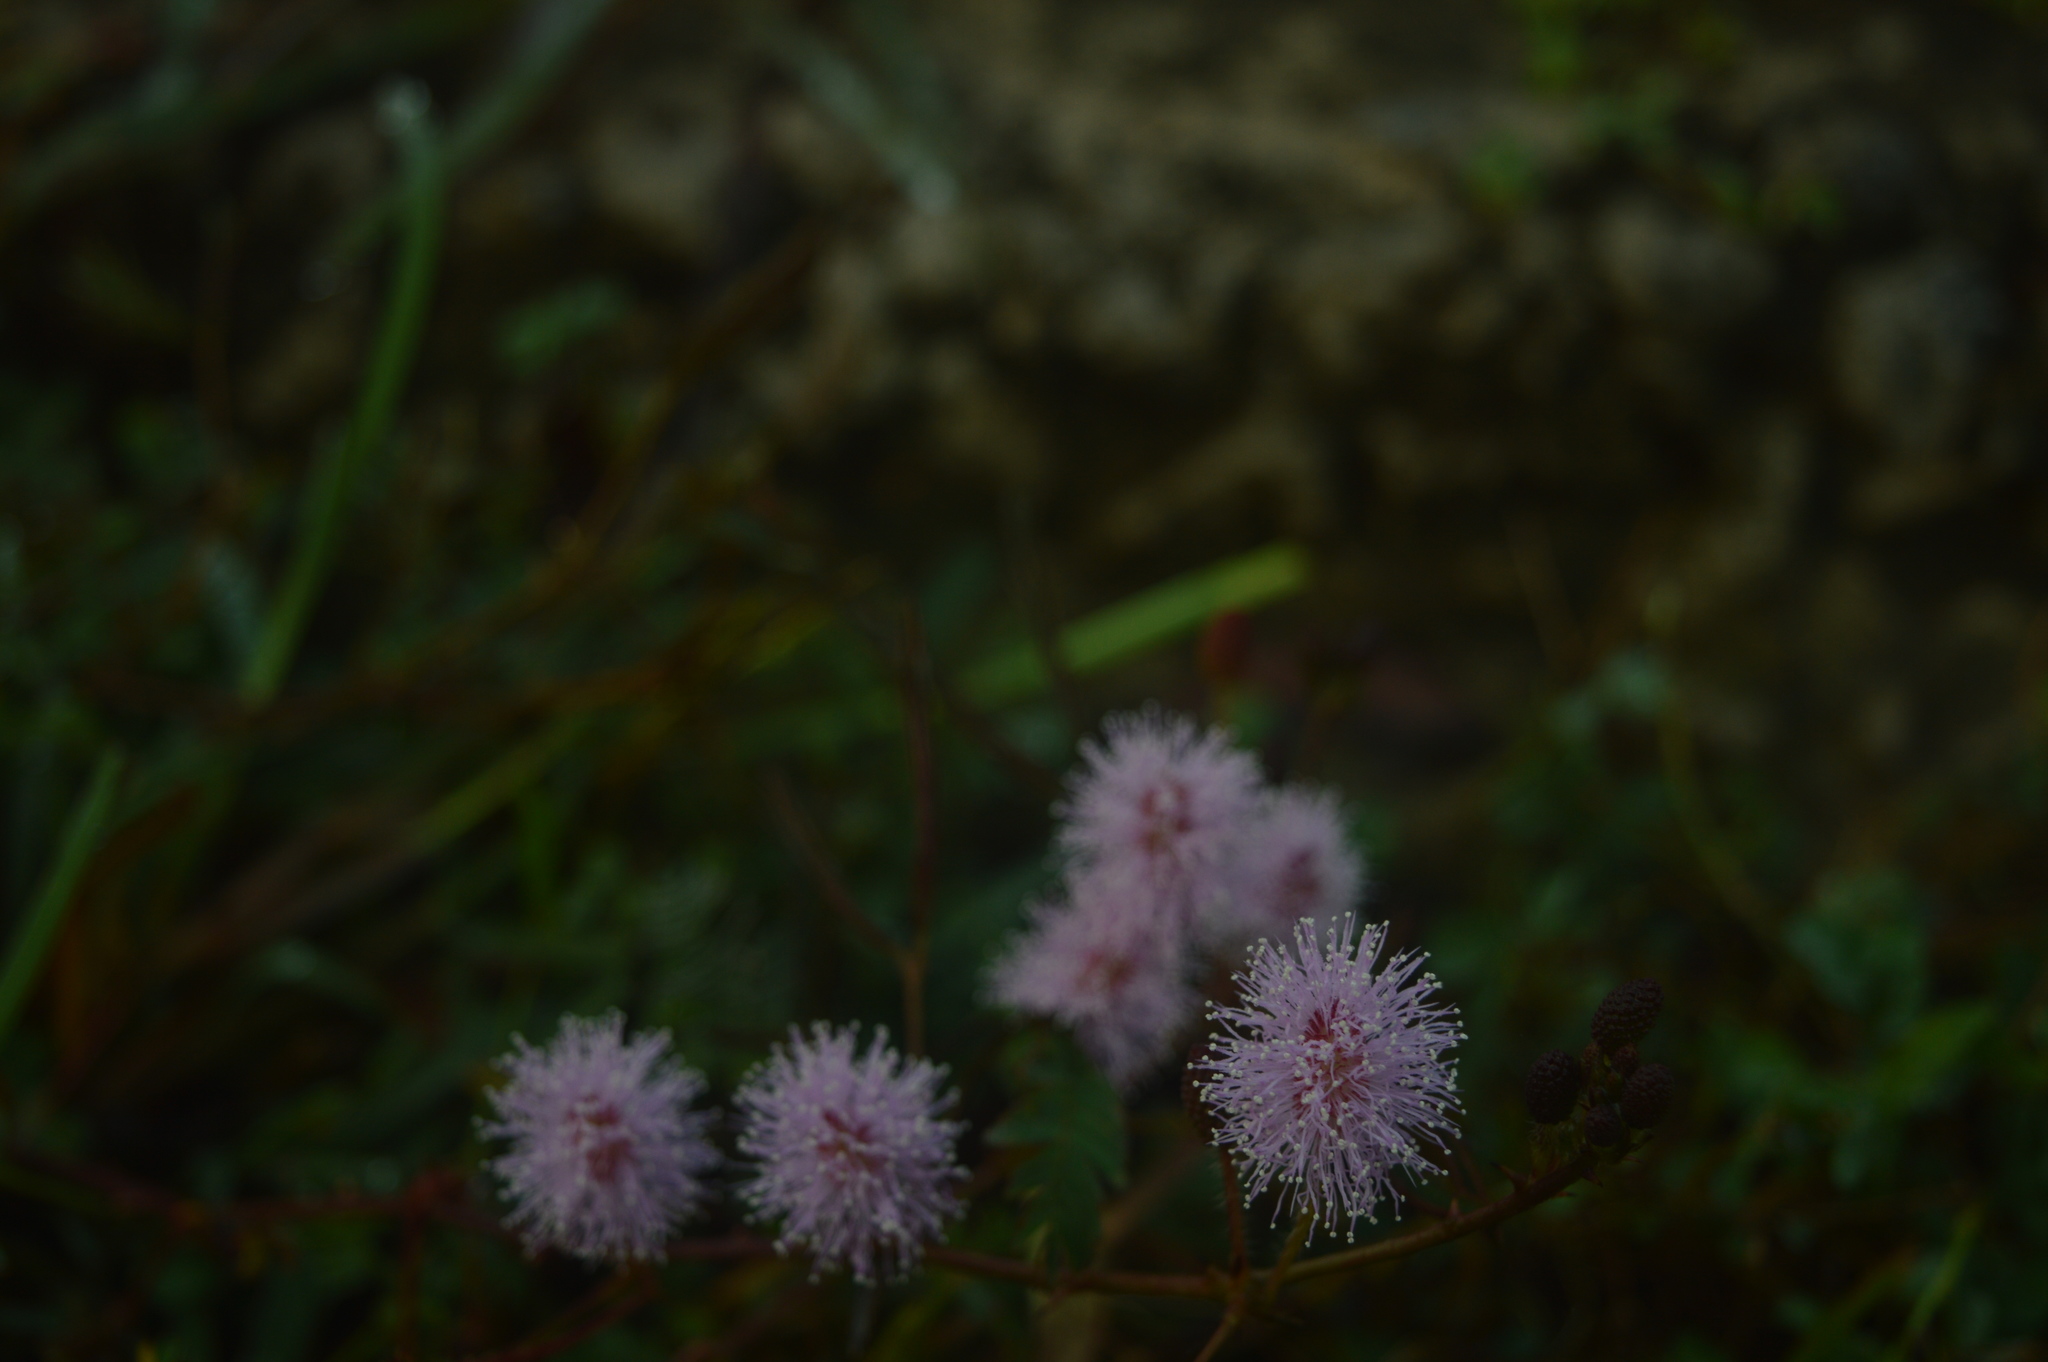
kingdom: Plantae
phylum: Tracheophyta
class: Magnoliopsida
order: Fabales
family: Fabaceae
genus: Mimosa
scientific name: Mimosa pudica
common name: Sensitive plant
